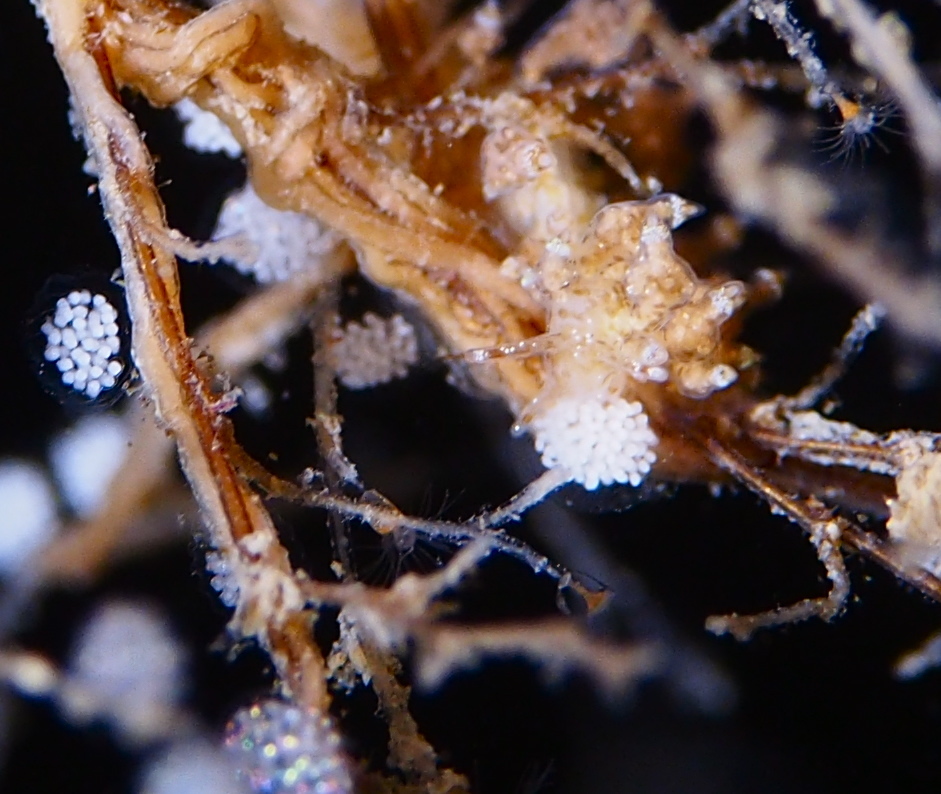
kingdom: Animalia
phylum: Mollusca
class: Gastropoda
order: Nudibranchia
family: Eubranchidae
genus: Eubranchus
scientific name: Eubranchus exiguus
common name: Balloon aeolis
